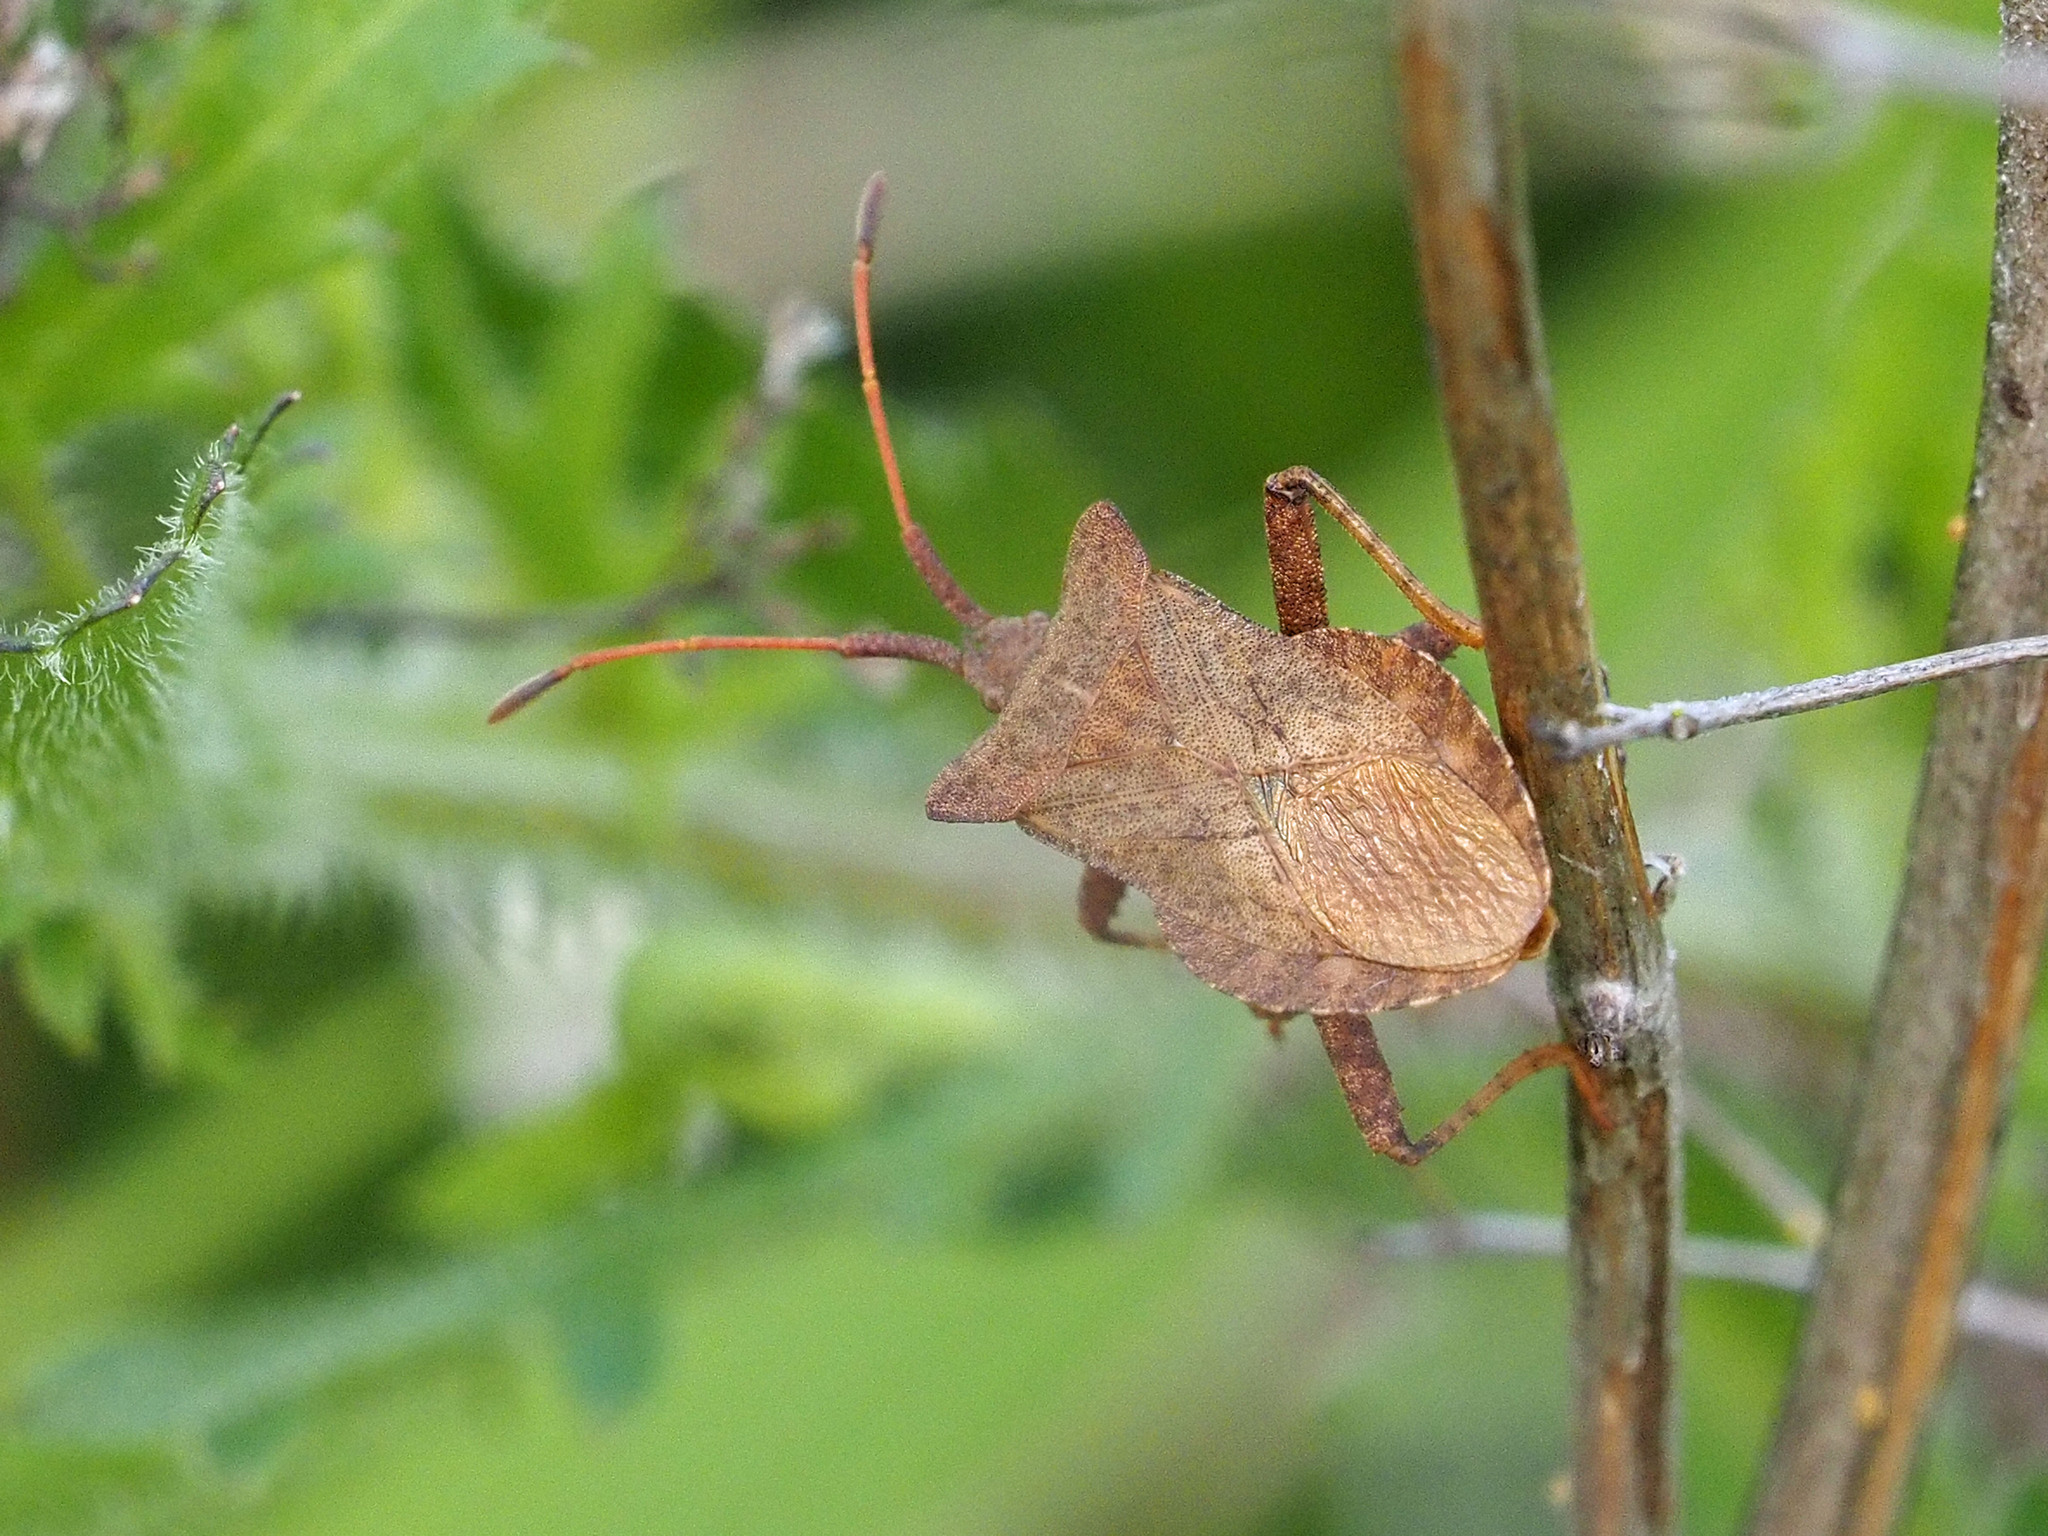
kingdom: Animalia
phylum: Arthropoda
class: Insecta
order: Hemiptera
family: Coreidae
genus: Coreus
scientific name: Coreus marginatus
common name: Dock bug
